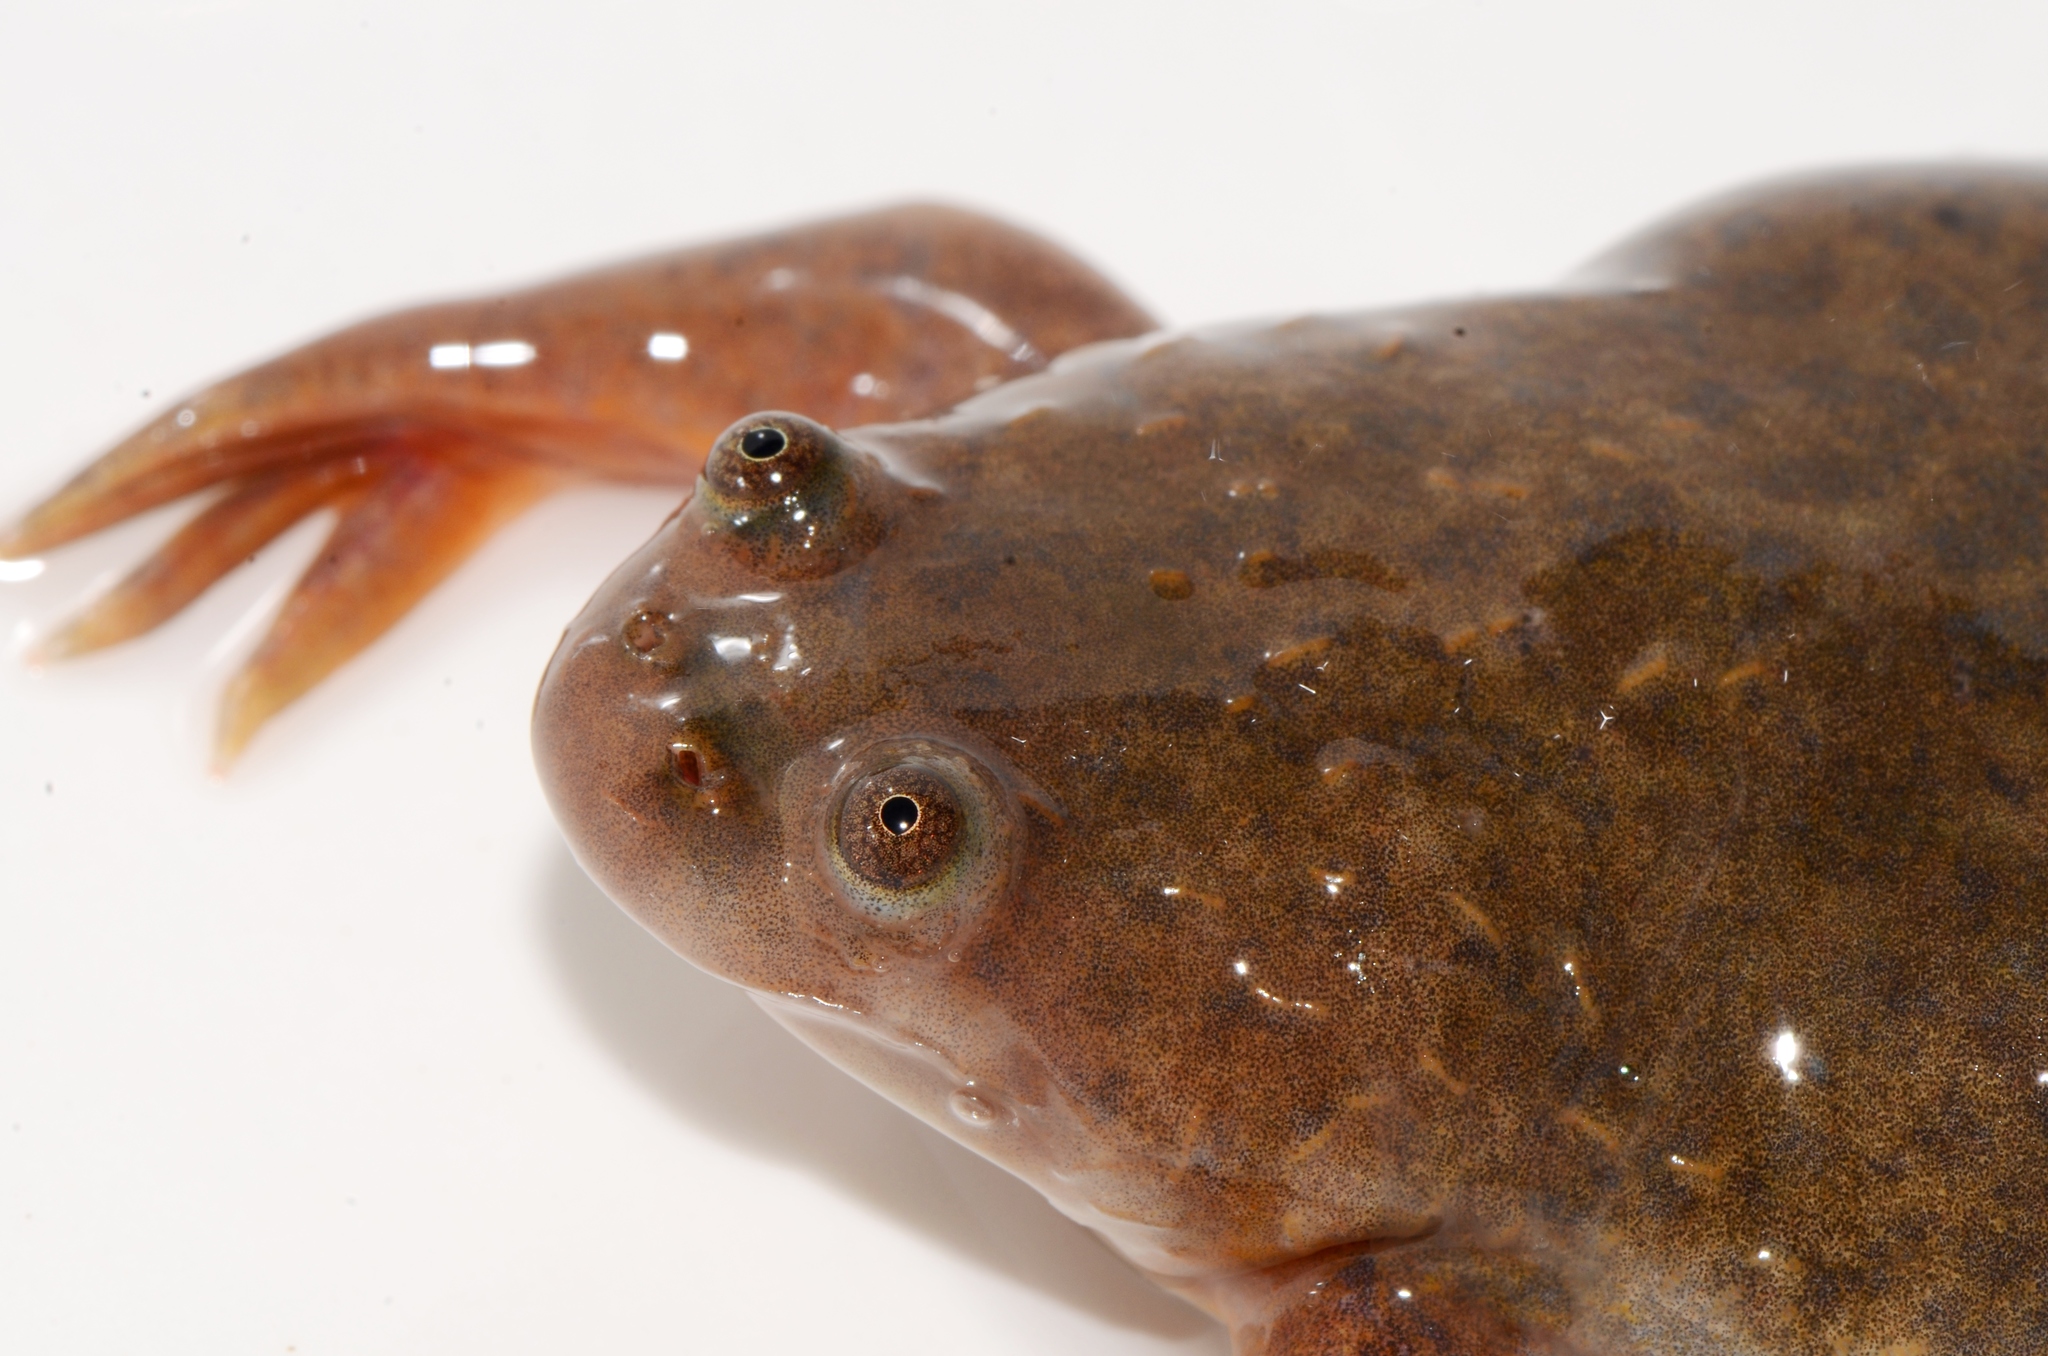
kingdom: Animalia
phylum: Chordata
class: Amphibia
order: Anura
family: Pipidae
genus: Xenopus
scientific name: Xenopus borealis
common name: Marsabit clawed frog
